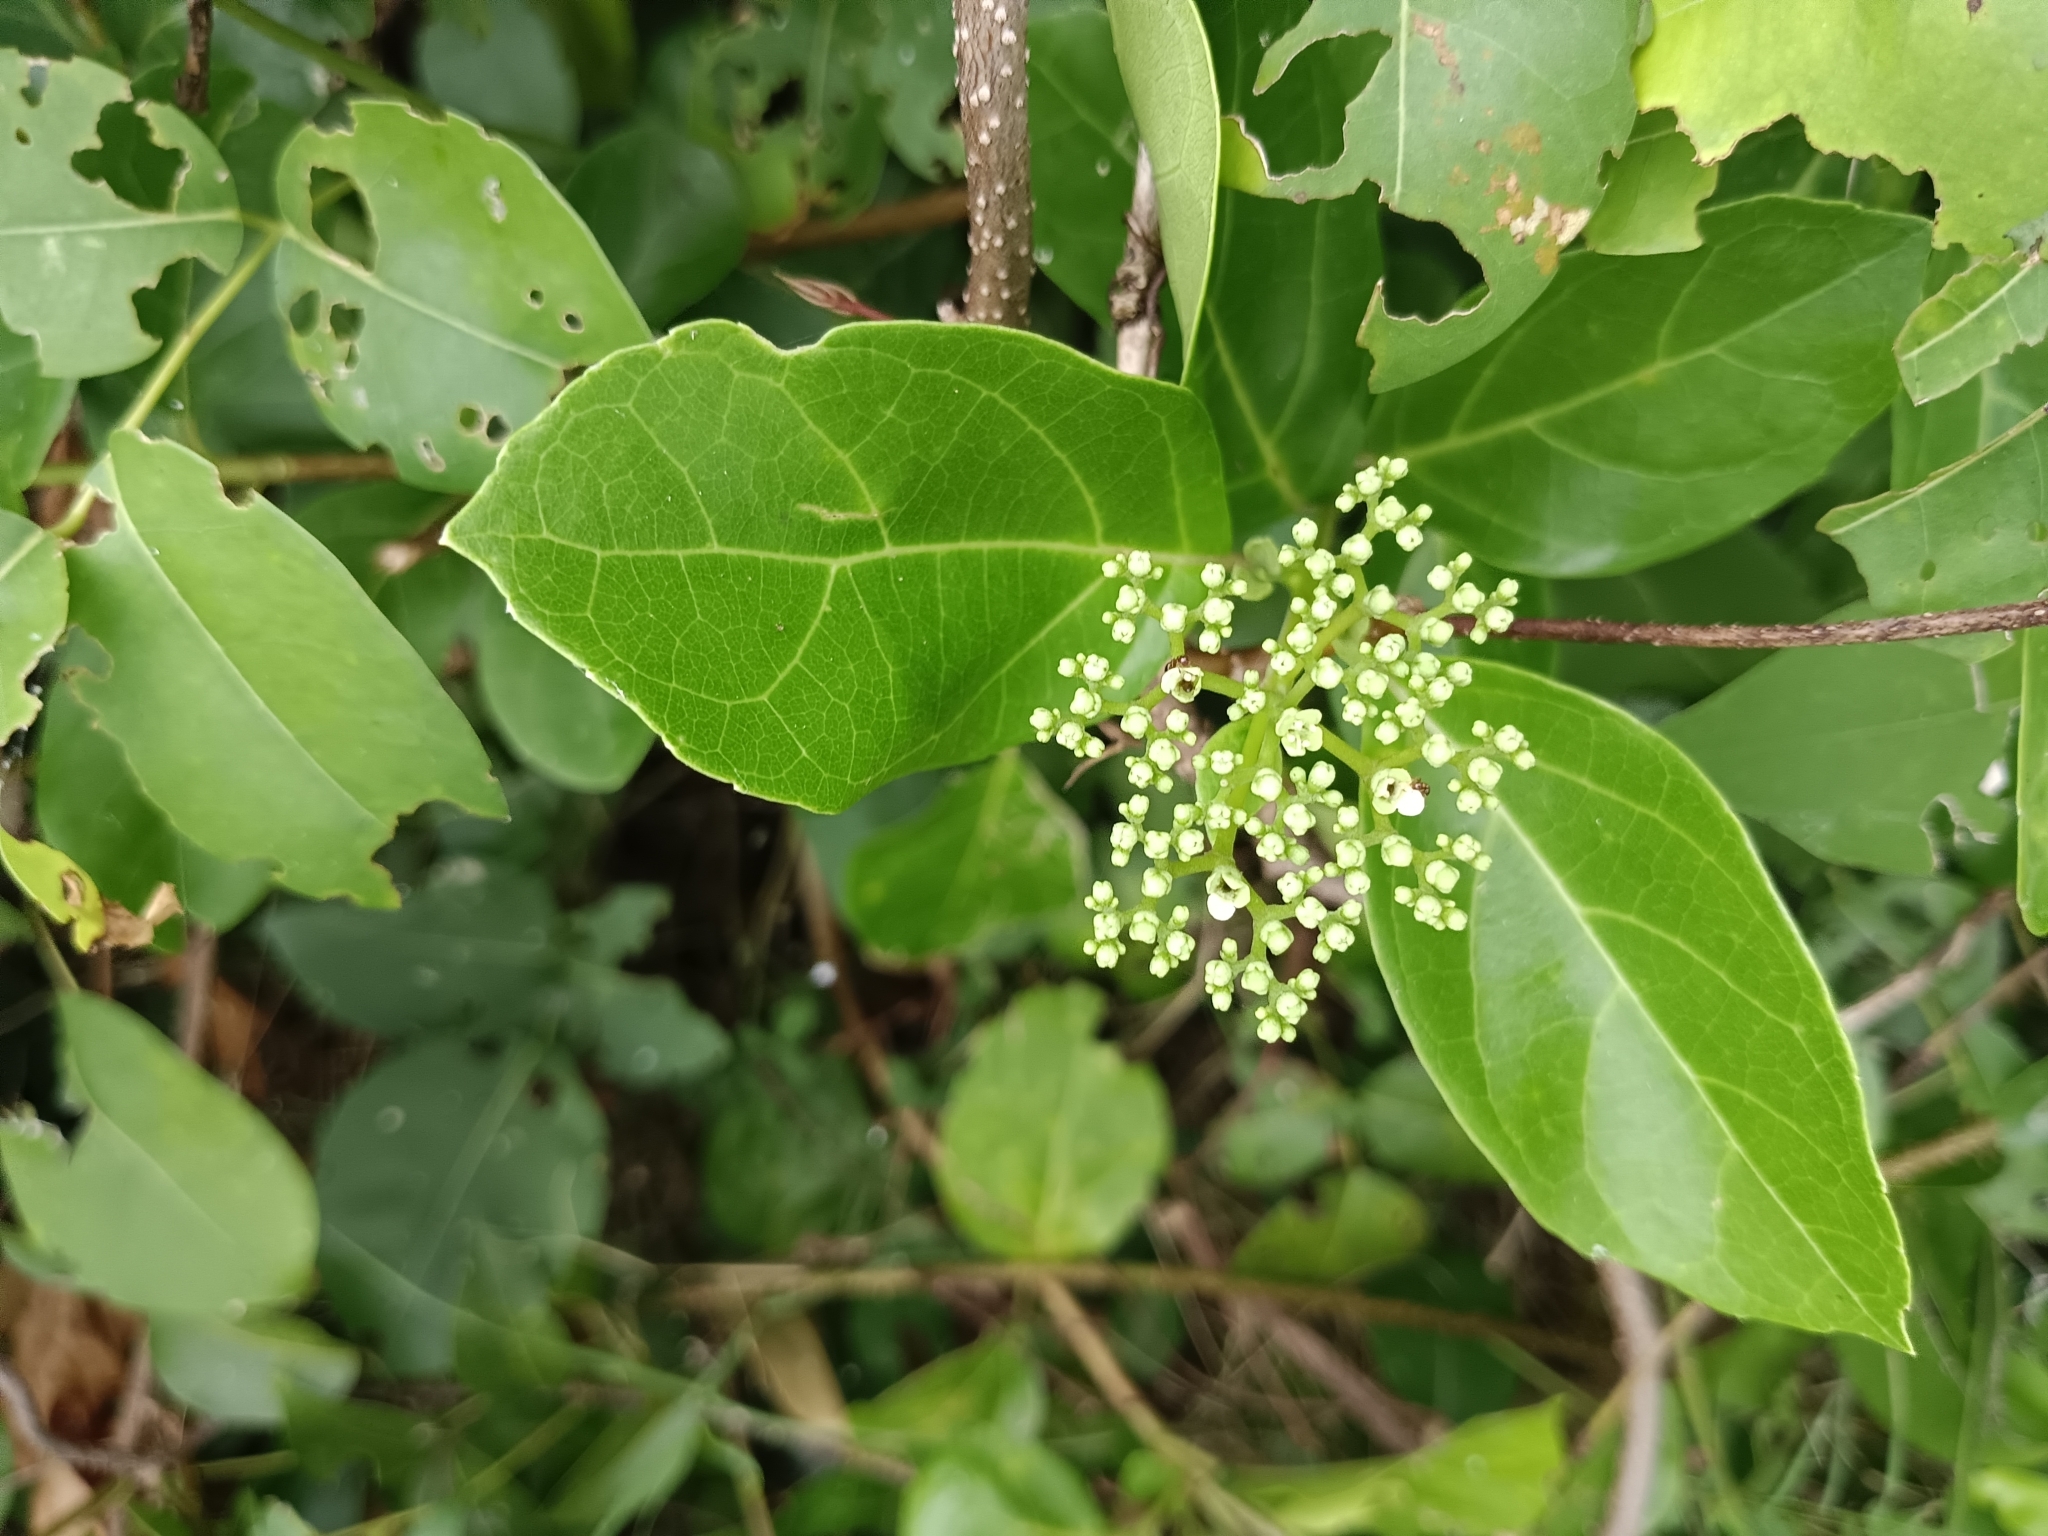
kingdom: Plantae
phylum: Tracheophyta
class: Magnoliopsida
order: Lamiales
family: Lamiaceae
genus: Premna
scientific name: Premna serratifolia
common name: Bastard guelder
